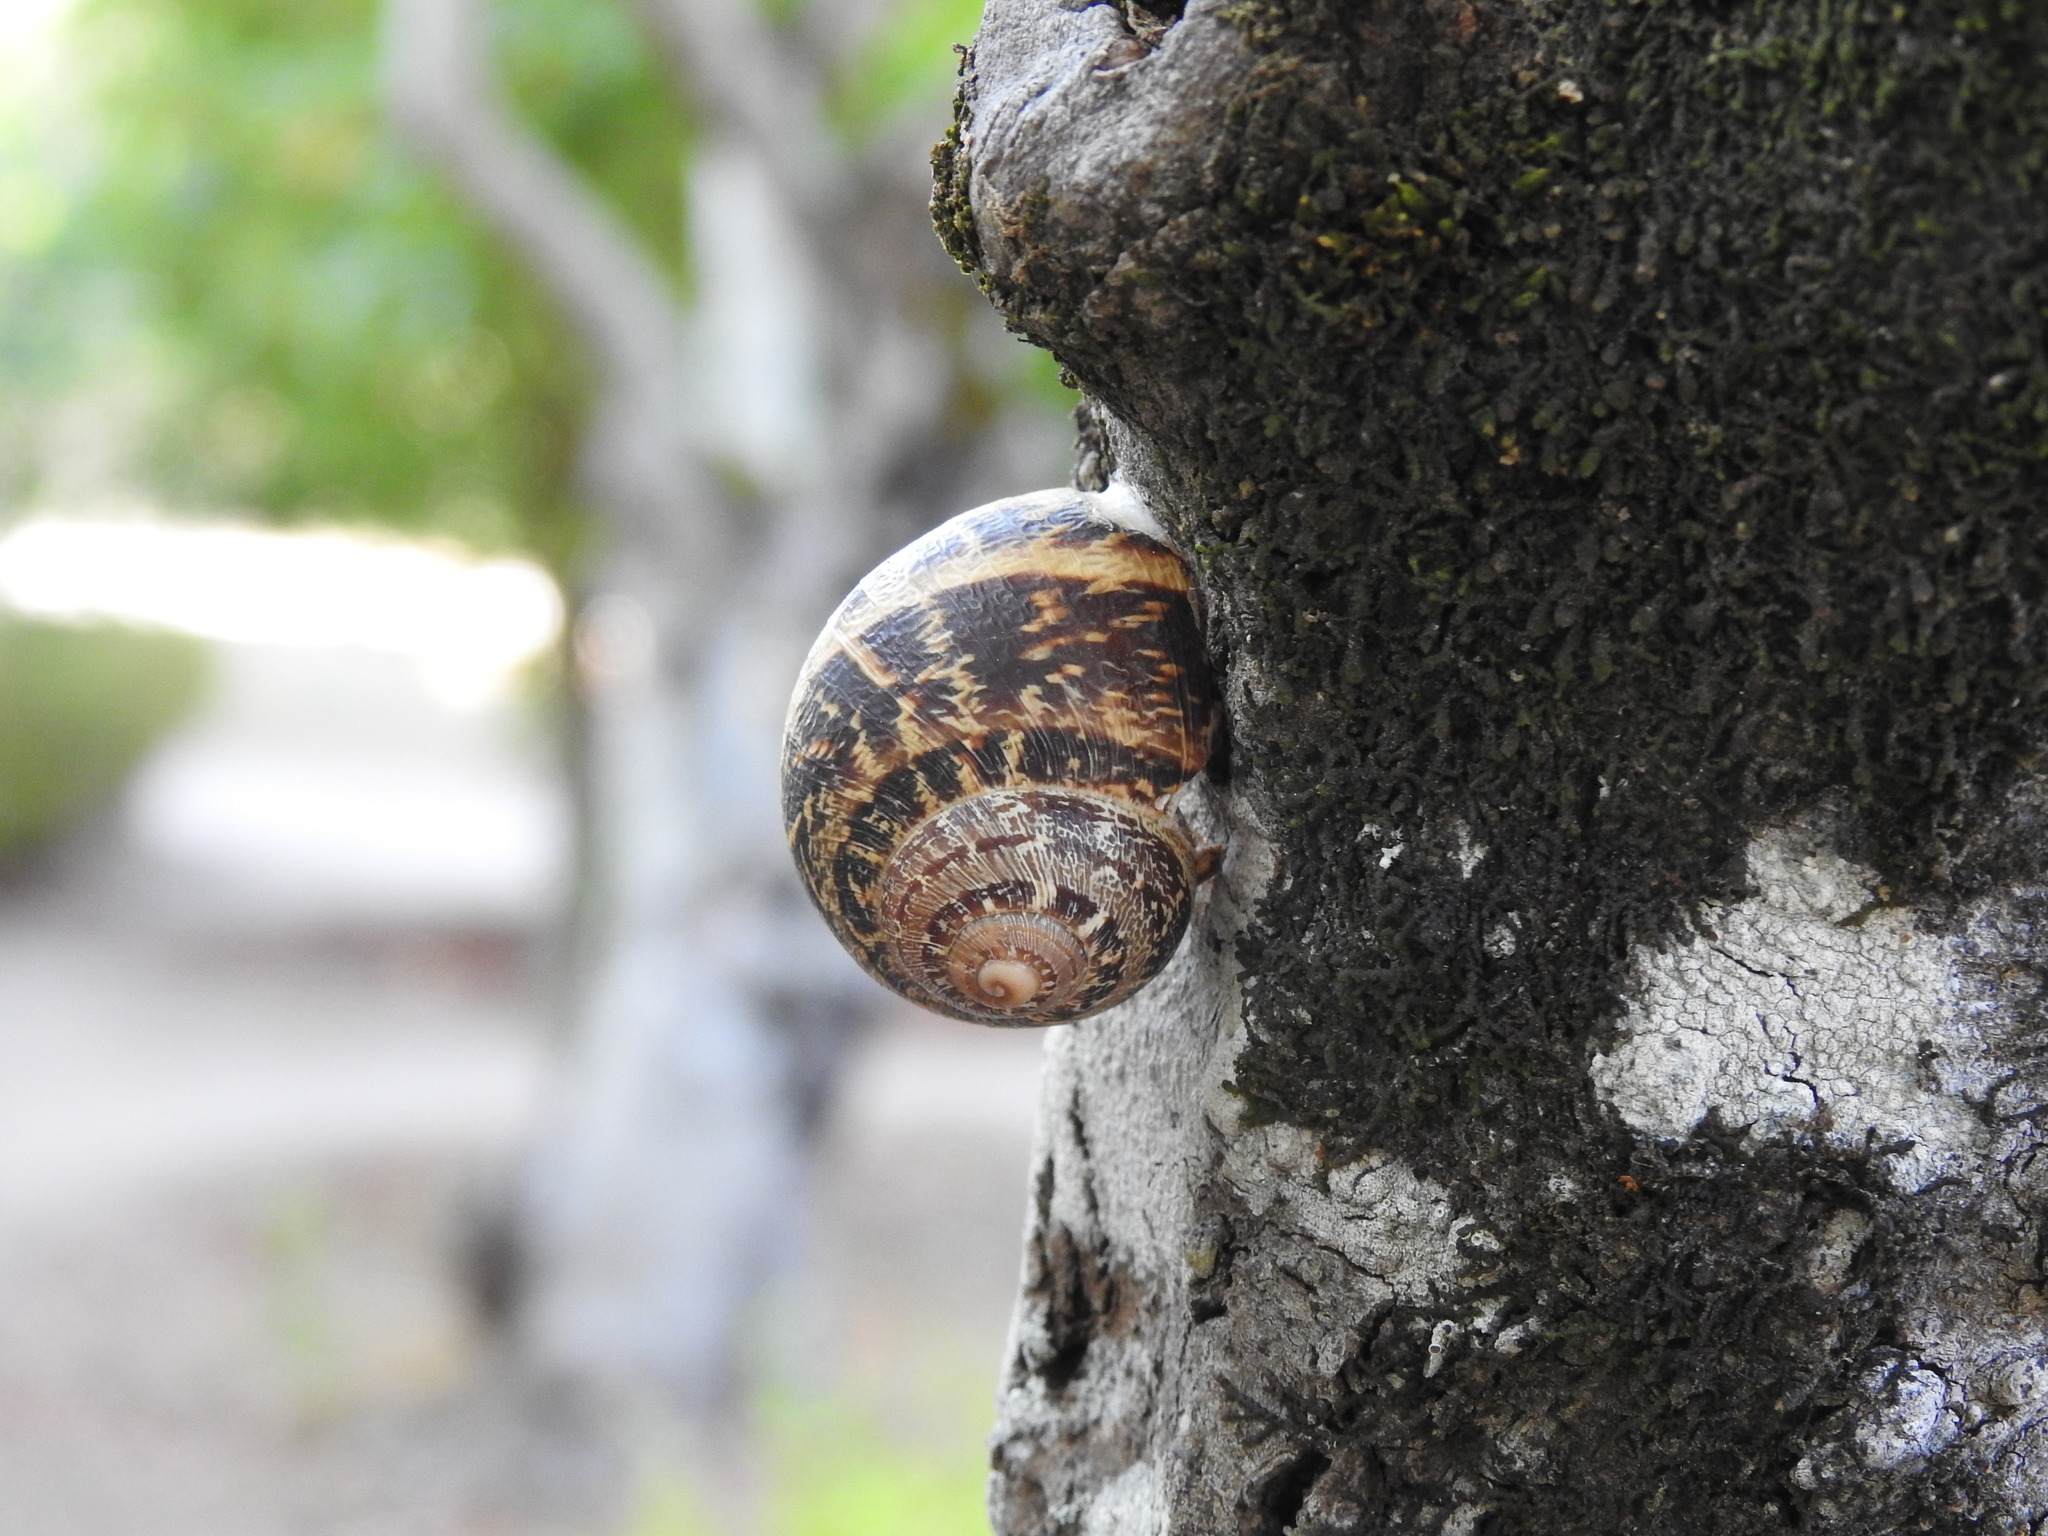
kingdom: Animalia
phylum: Mollusca
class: Gastropoda
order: Stylommatophora
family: Helicidae
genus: Cornu
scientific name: Cornu aspersum
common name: Brown garden snail
